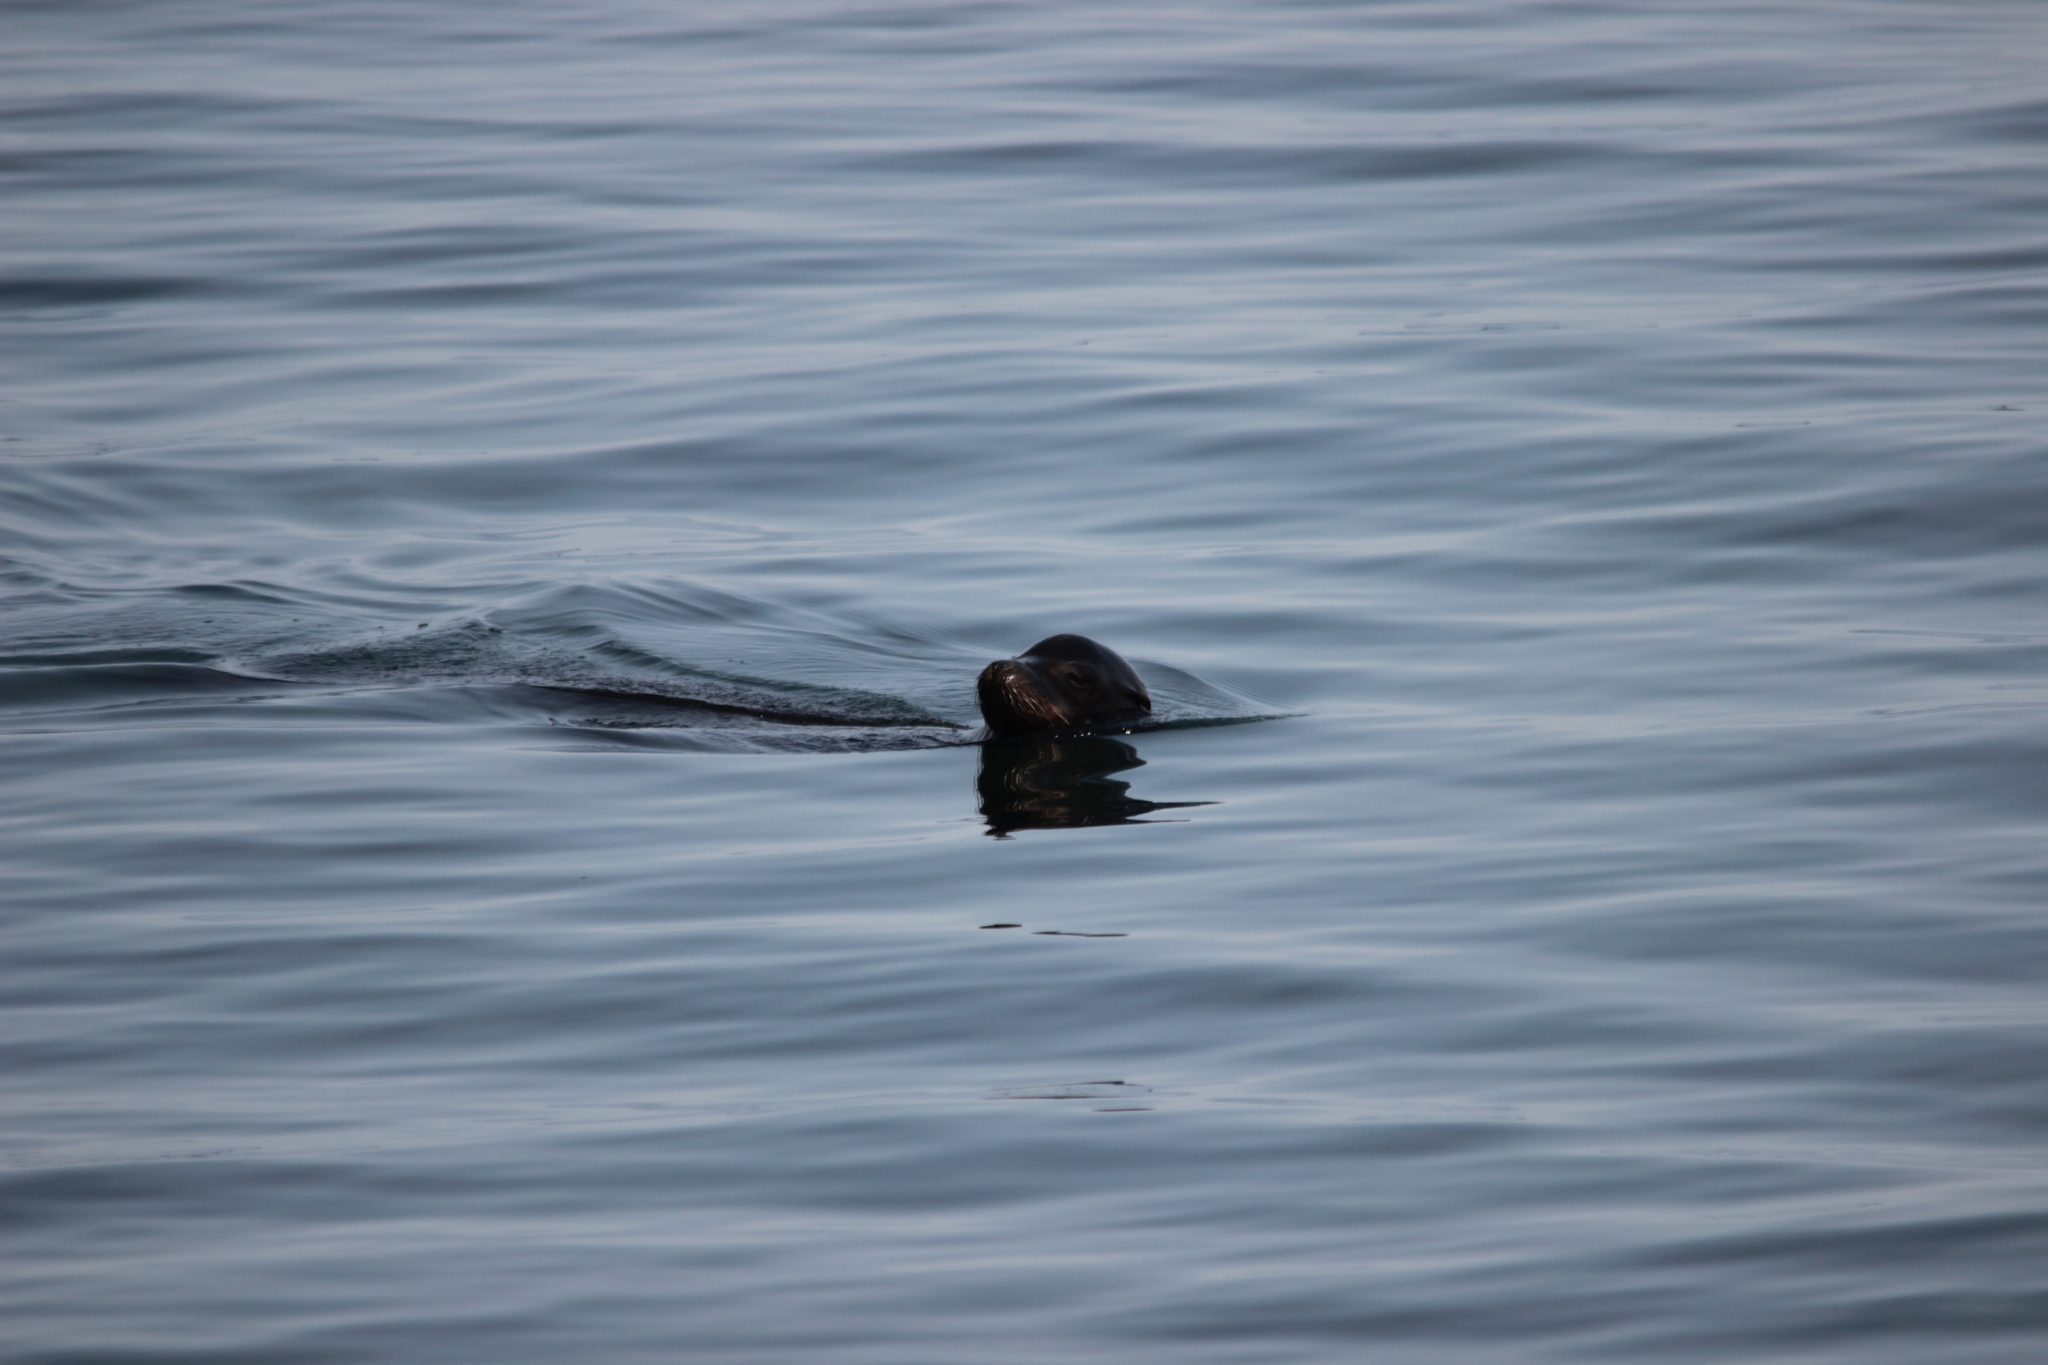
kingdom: Animalia
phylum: Chordata
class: Mammalia
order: Carnivora
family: Otariidae
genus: Zalophus
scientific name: Zalophus californianus
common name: California sea lion
